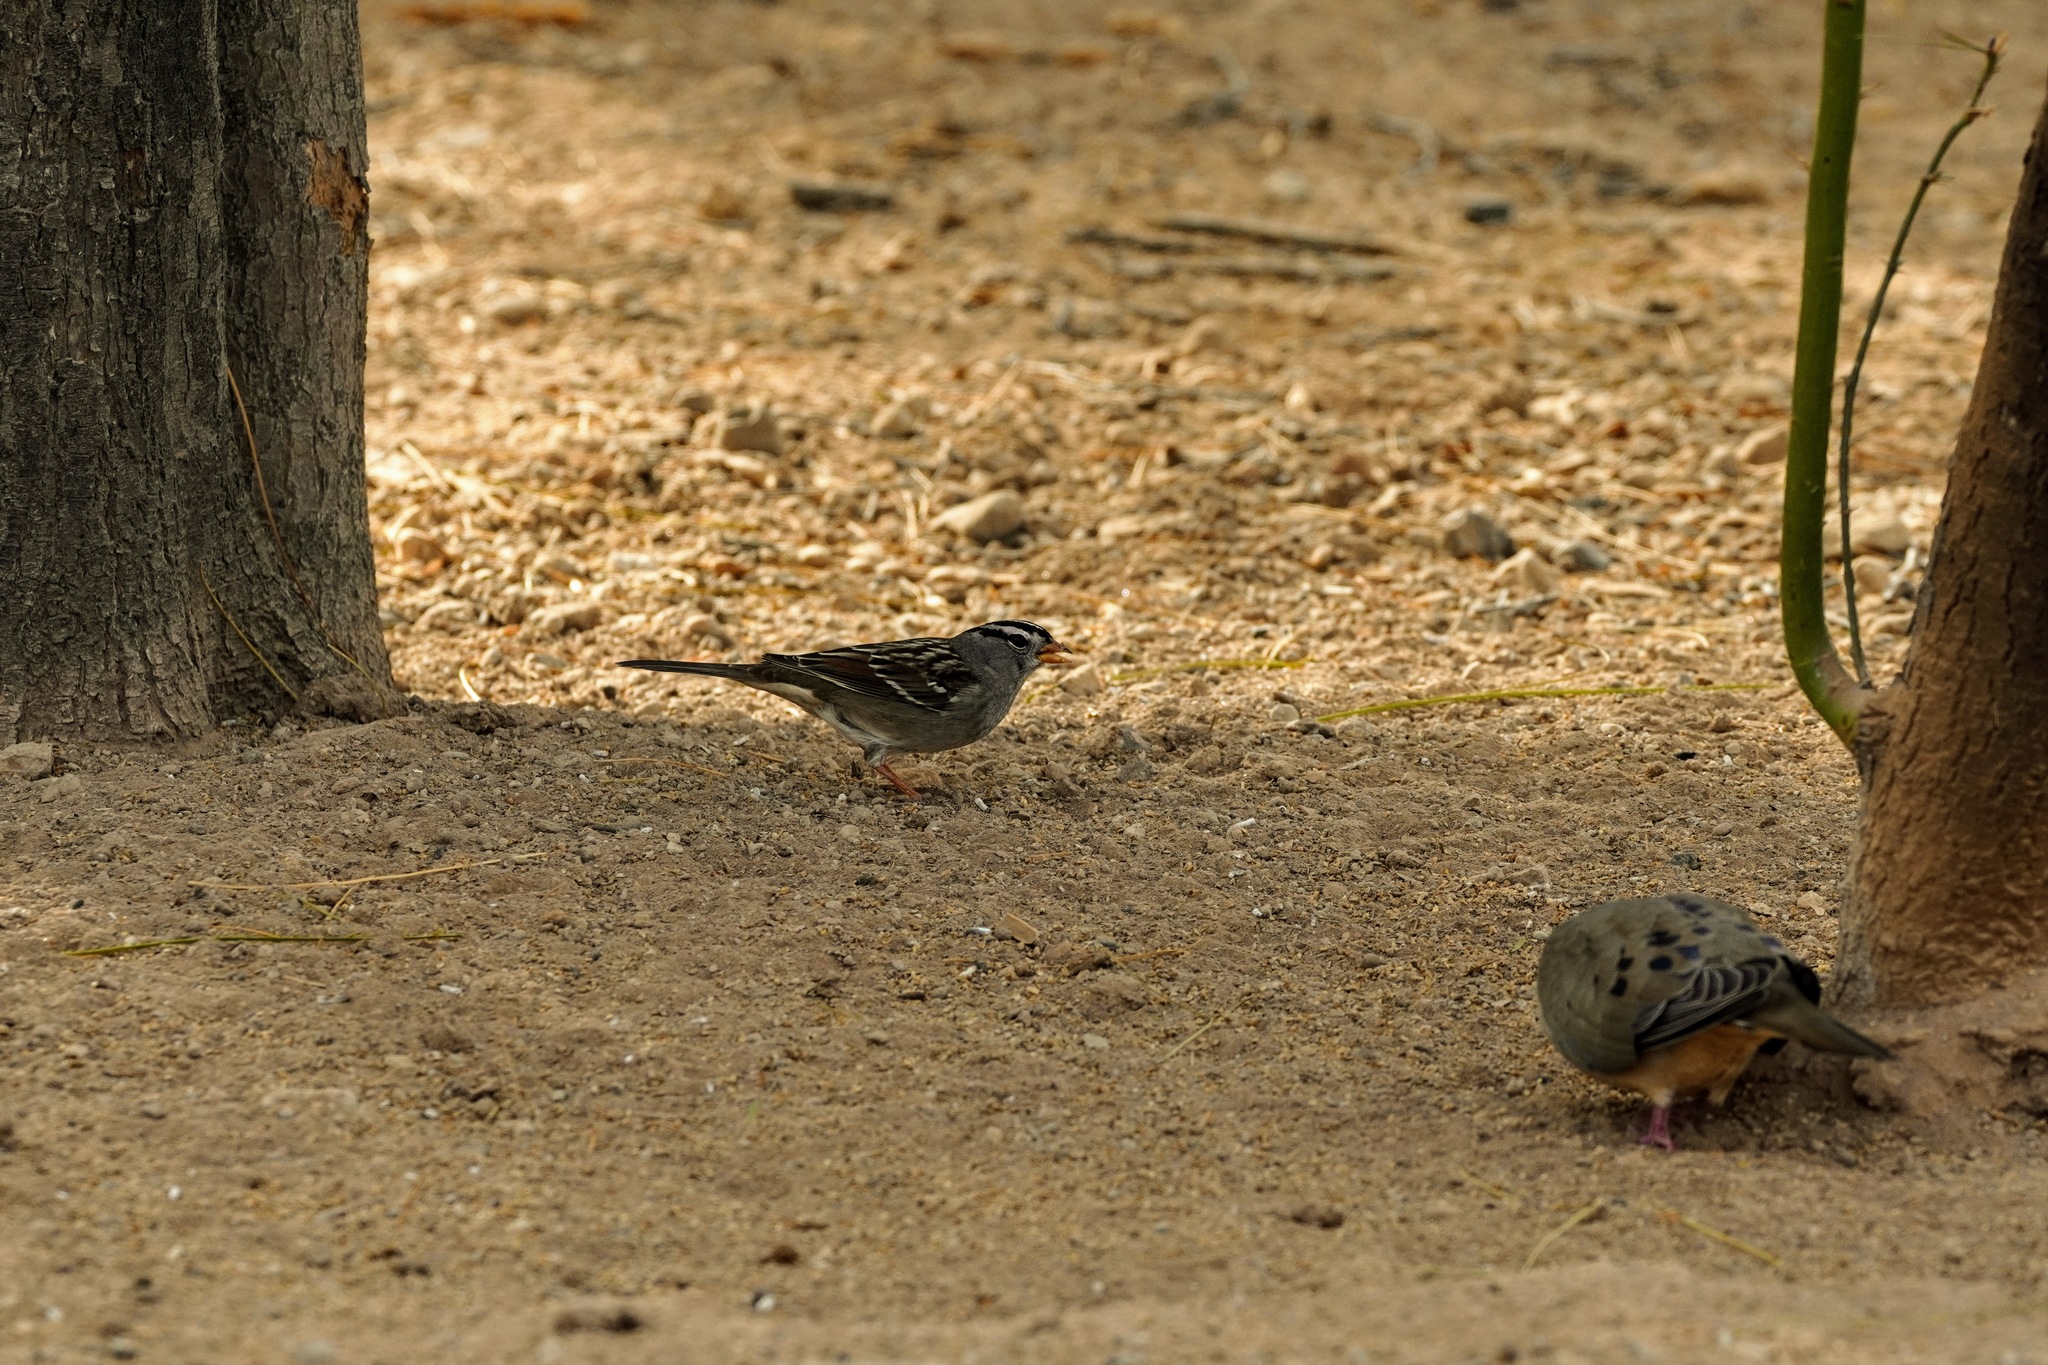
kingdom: Animalia
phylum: Chordata
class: Aves
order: Passeriformes
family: Passerellidae
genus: Zonotrichia
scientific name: Zonotrichia leucophrys
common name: White-crowned sparrow
